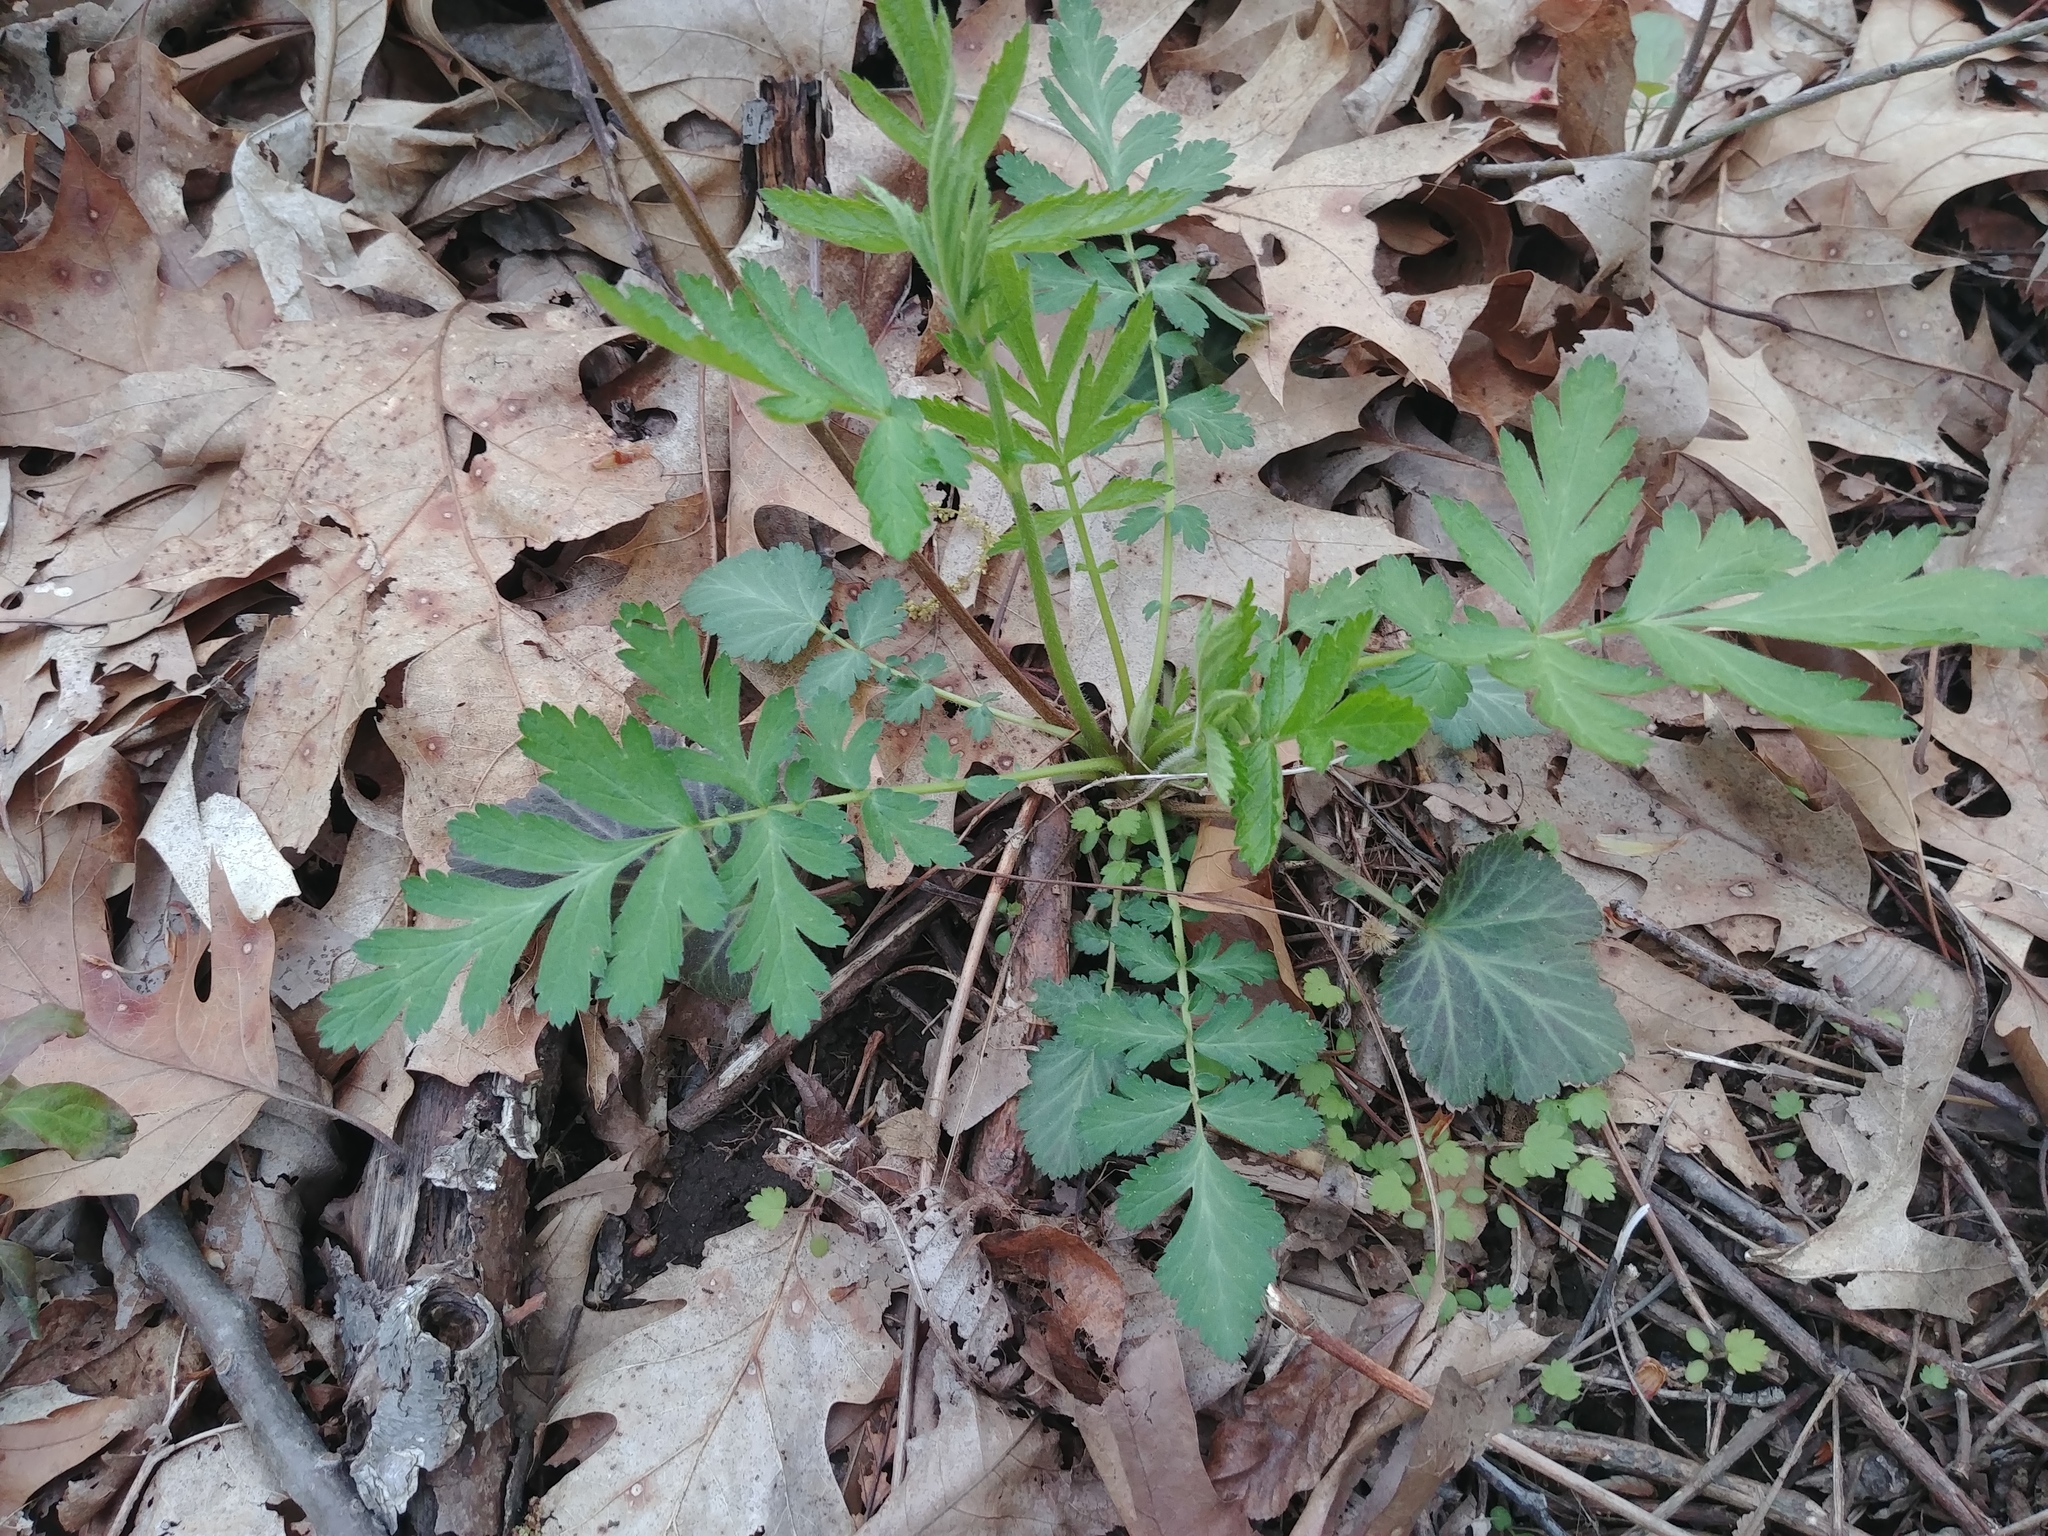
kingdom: Plantae
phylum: Tracheophyta
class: Magnoliopsida
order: Rosales
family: Rosaceae
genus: Geum
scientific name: Geum canadense
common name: White avens
